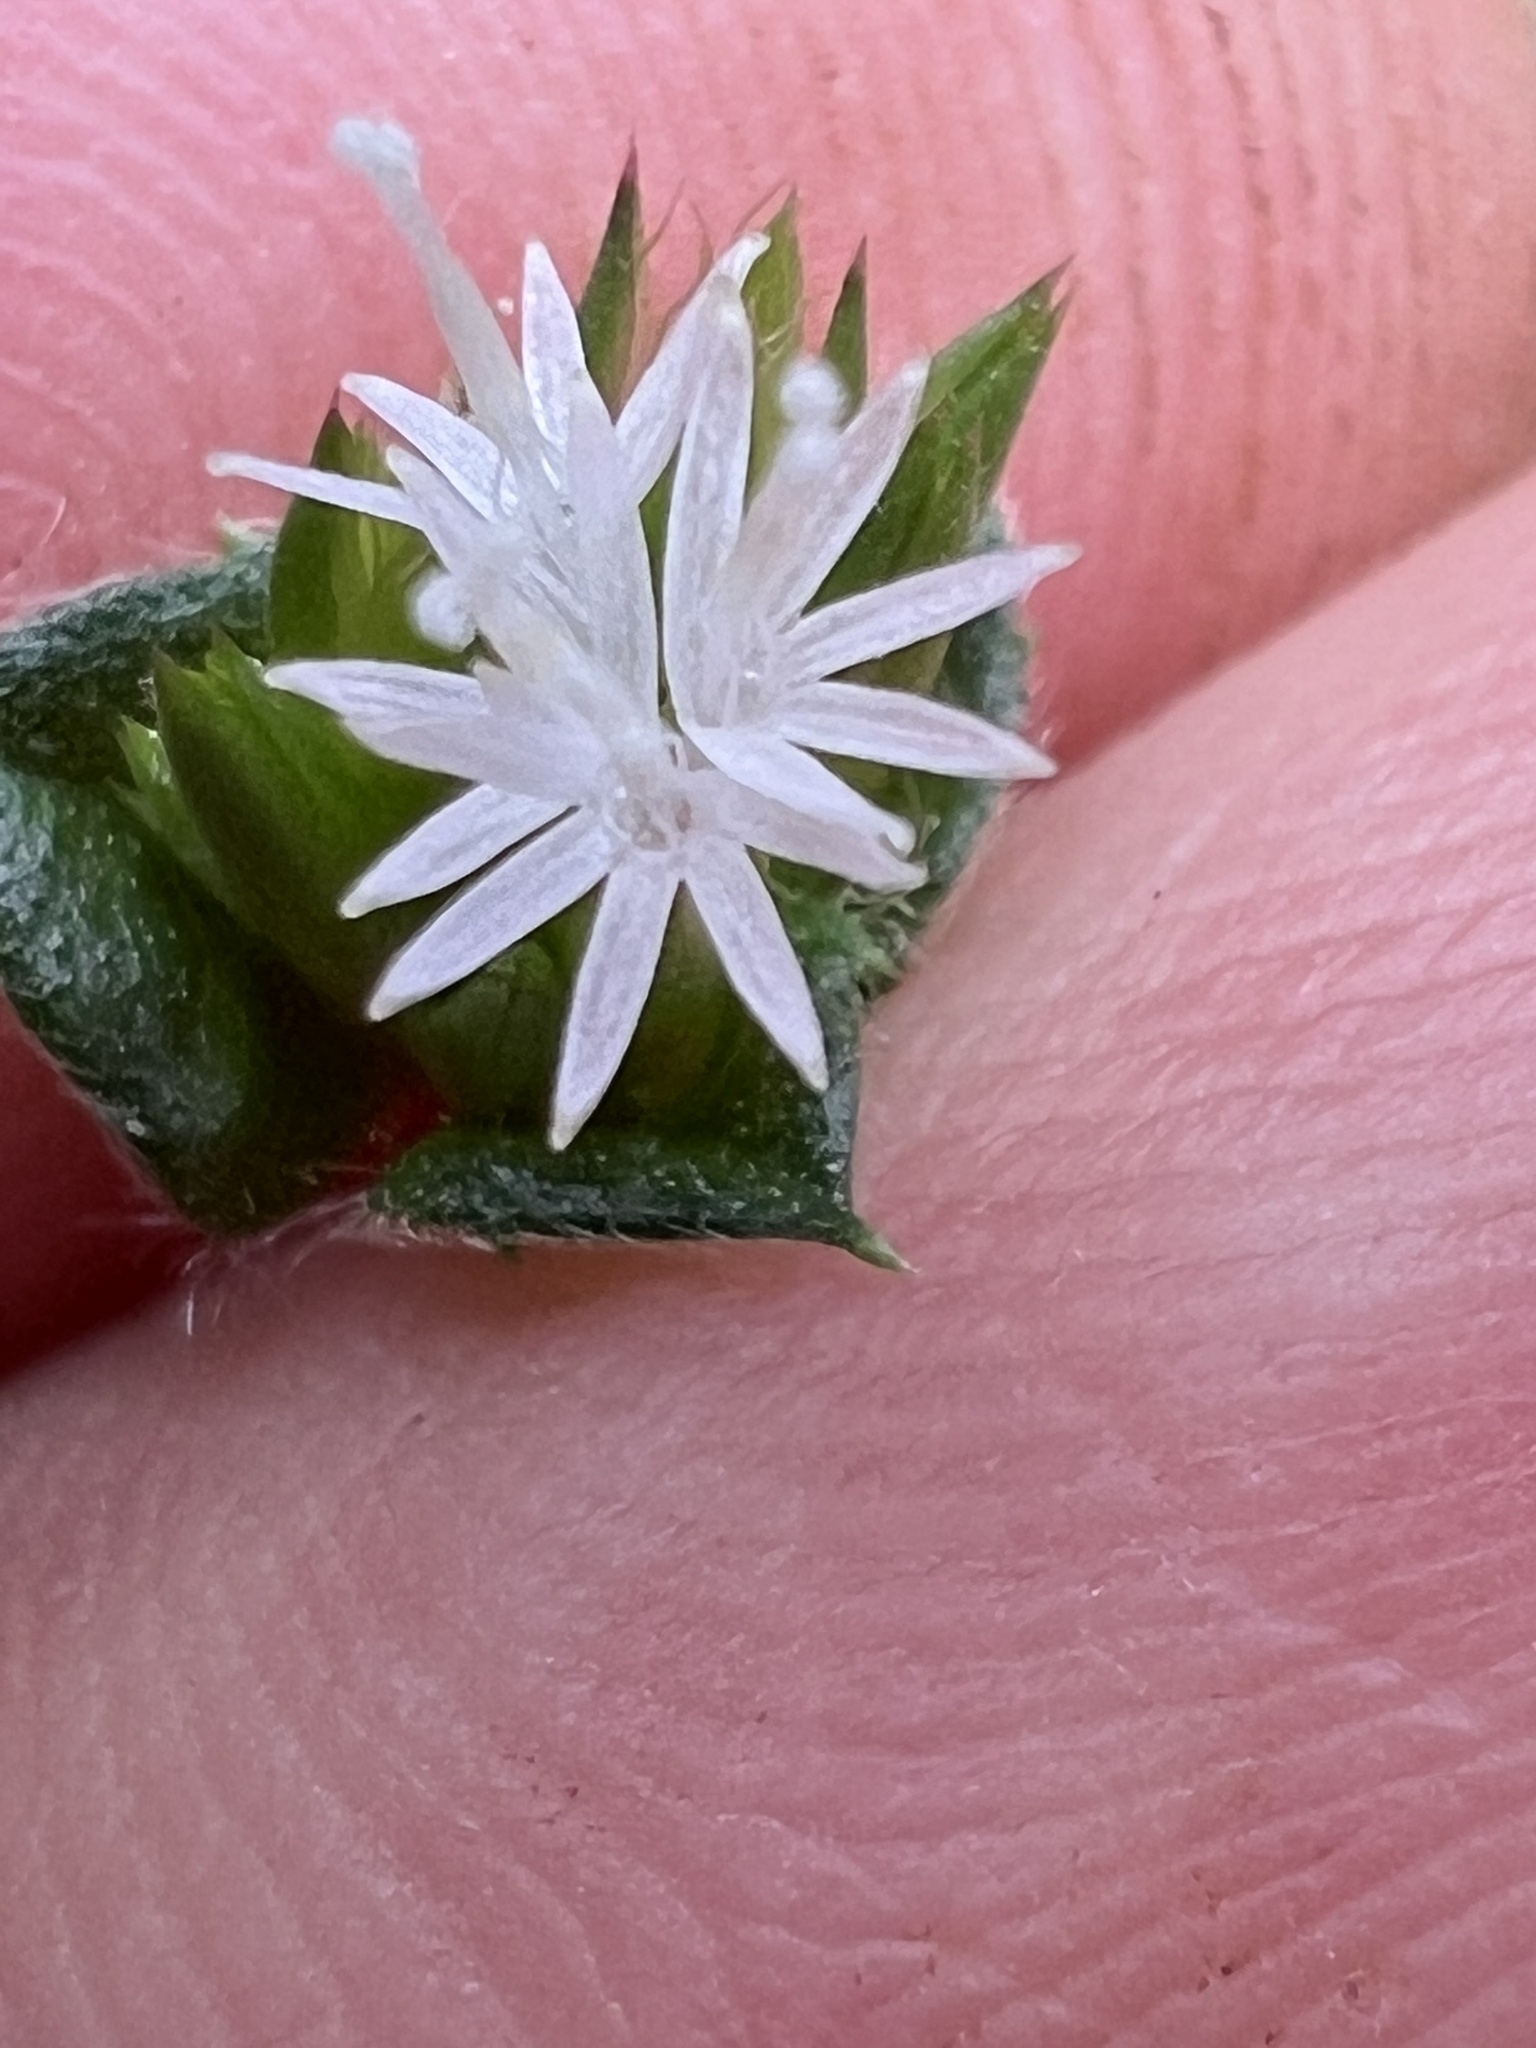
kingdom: Plantae
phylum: Tracheophyta
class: Magnoliopsida
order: Asterales
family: Asteraceae
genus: Elephantopus
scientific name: Elephantopus mollis
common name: Soft elephantsfoot
